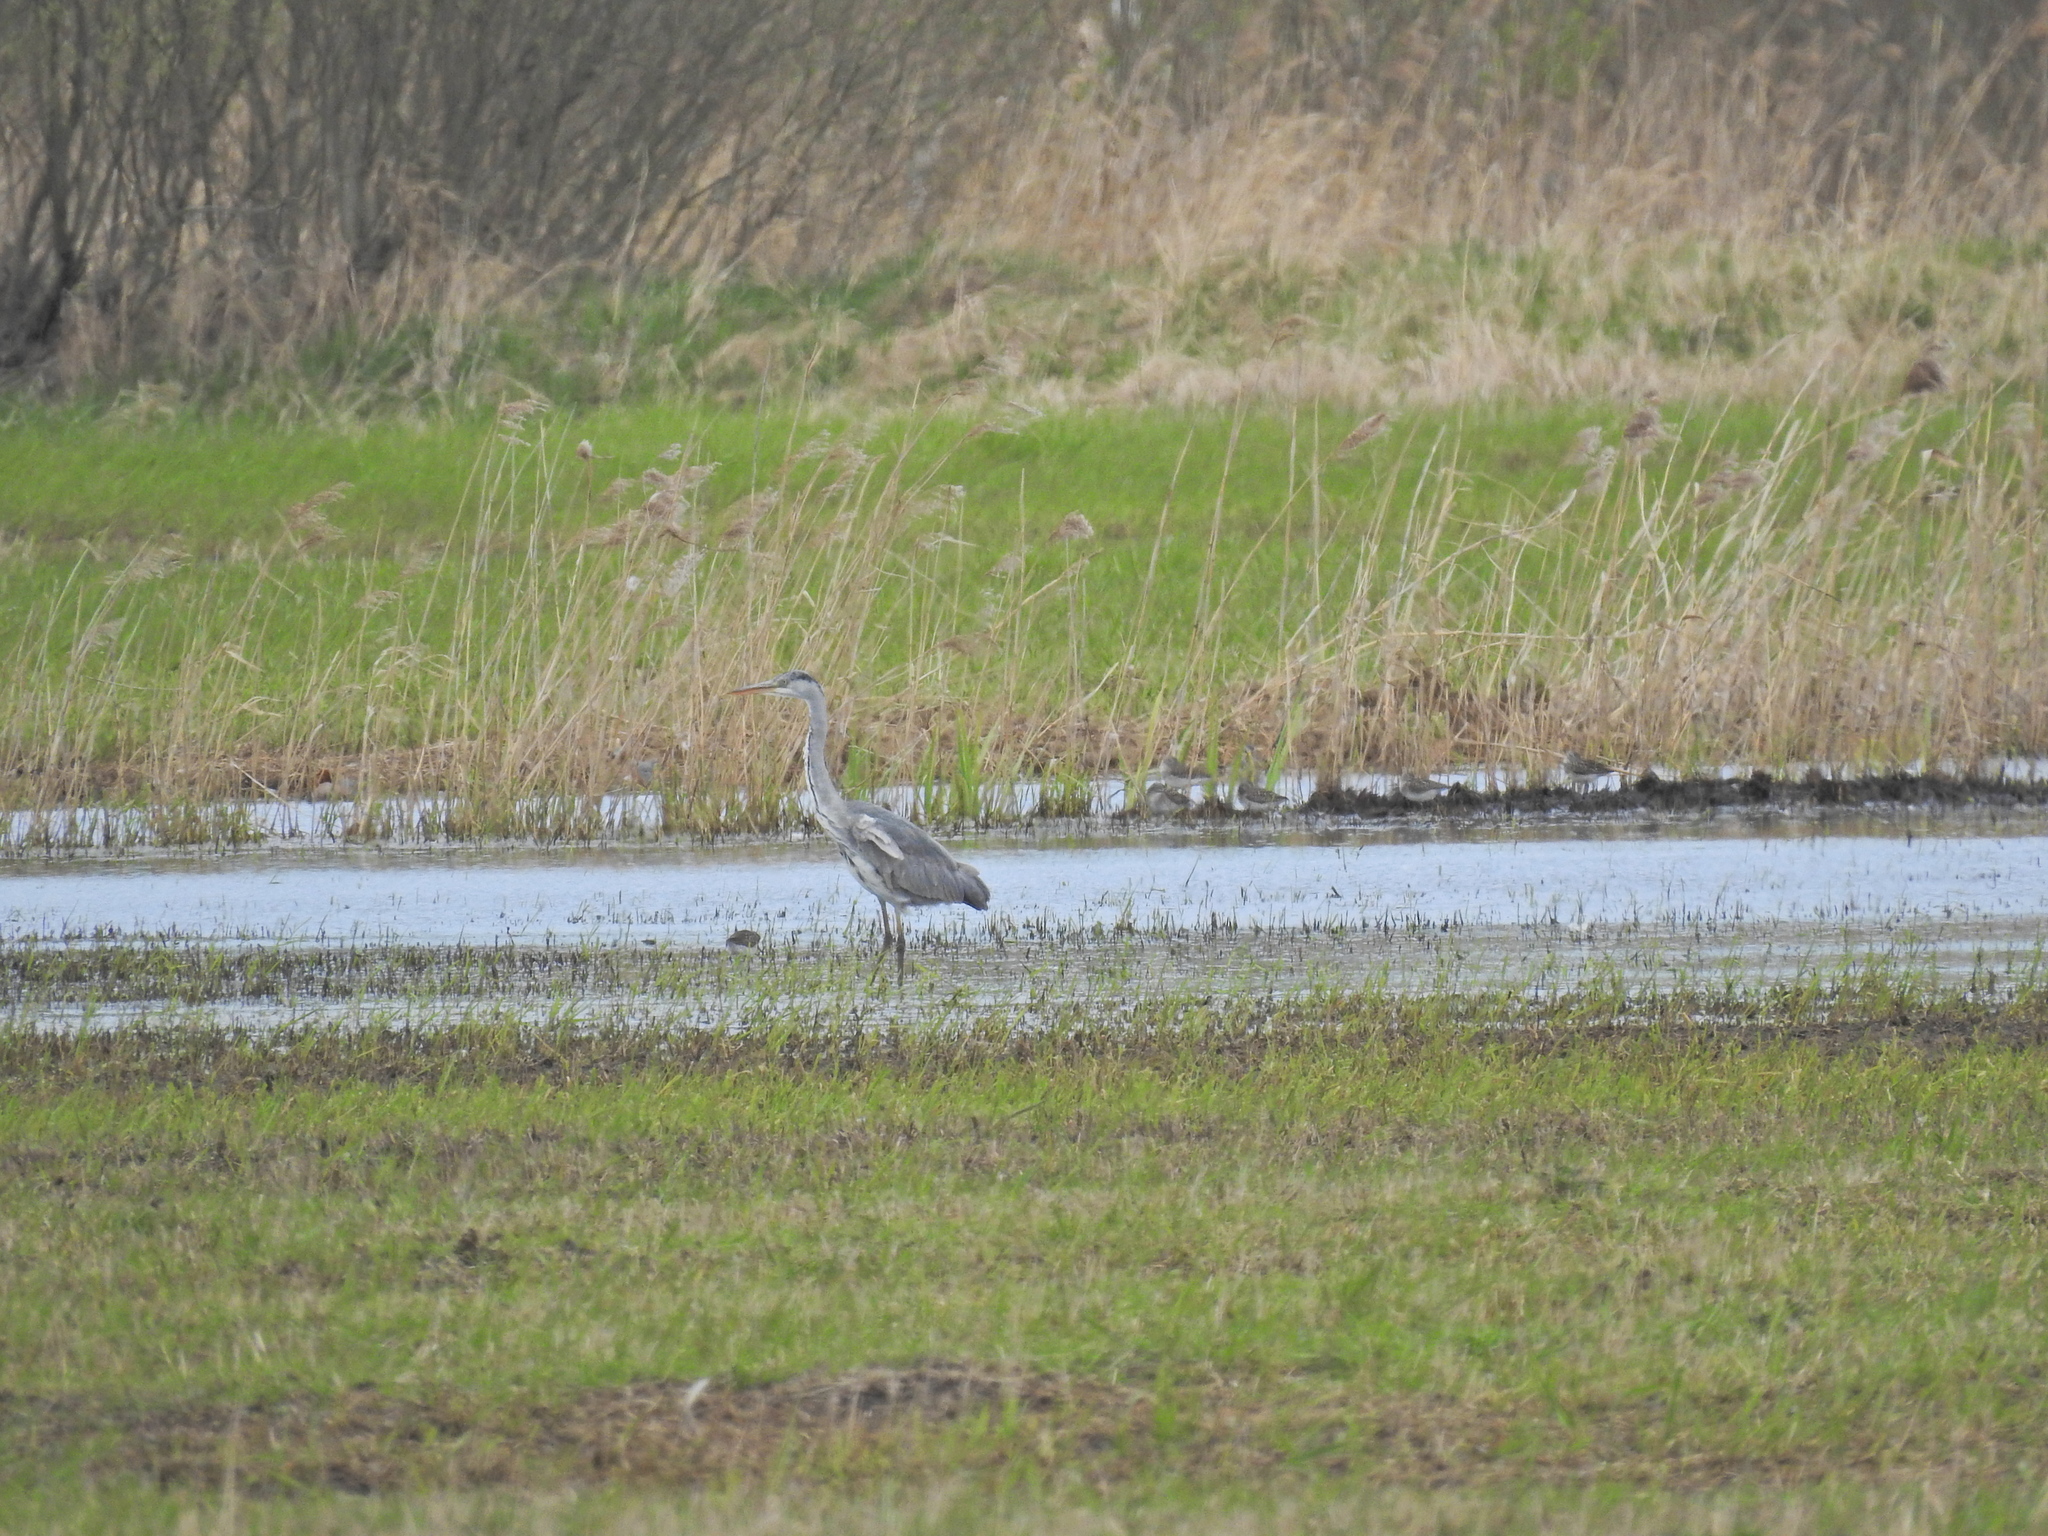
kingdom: Animalia
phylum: Chordata
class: Aves
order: Pelecaniformes
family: Ardeidae
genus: Ardea
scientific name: Ardea cinerea
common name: Grey heron
